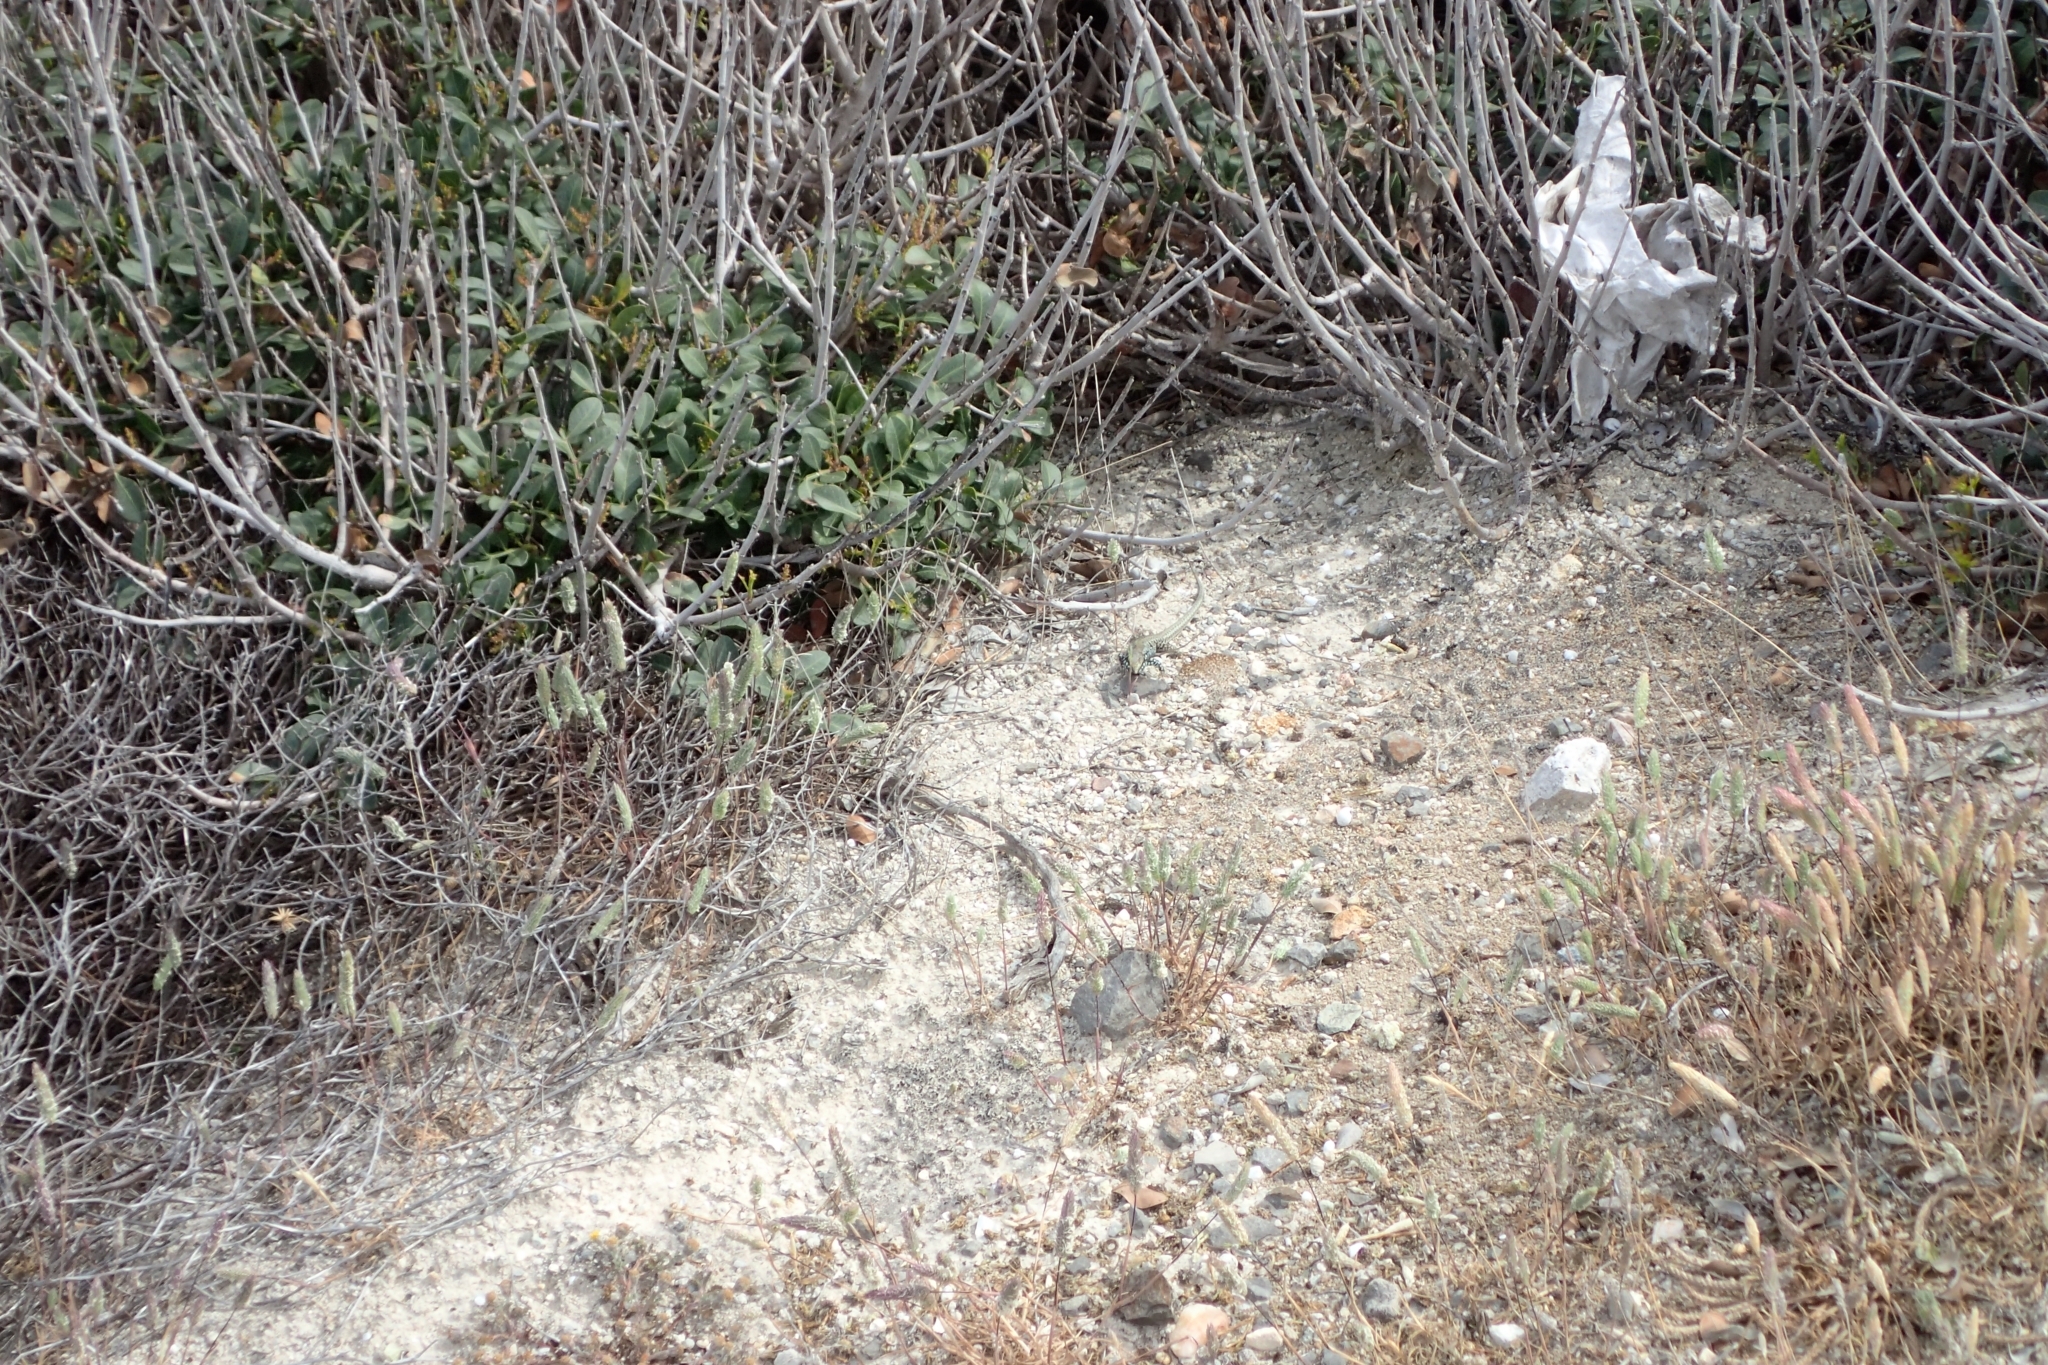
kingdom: Animalia
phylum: Chordata
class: Squamata
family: Lacertidae
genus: Podarcis
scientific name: Podarcis milensis
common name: Milos wall lizard
